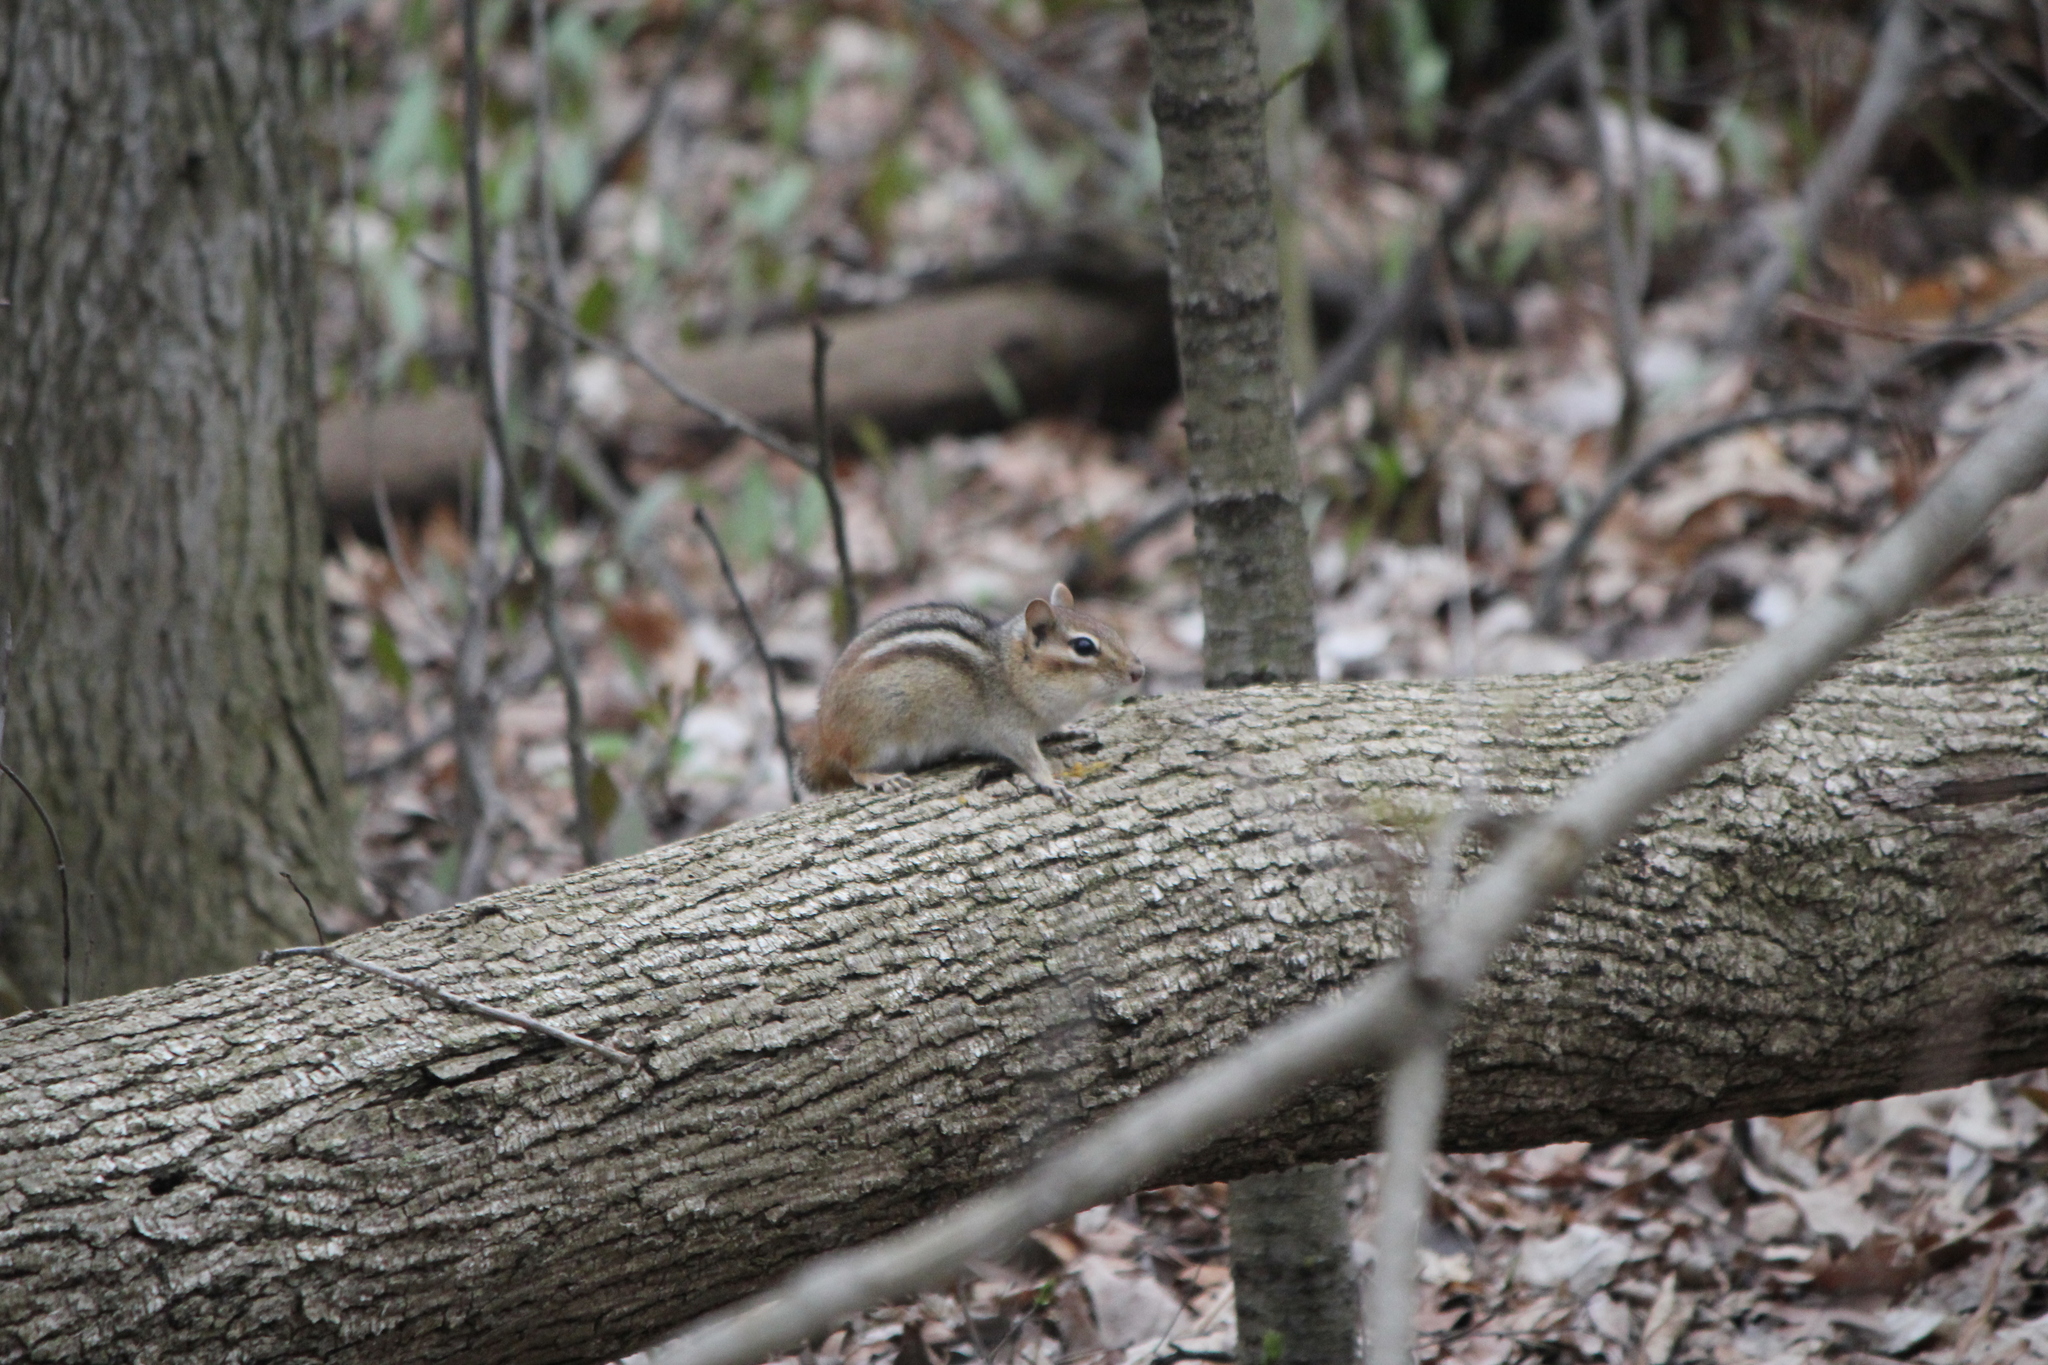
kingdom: Animalia
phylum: Chordata
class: Mammalia
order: Rodentia
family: Sciuridae
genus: Tamias
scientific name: Tamias striatus
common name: Eastern chipmunk
